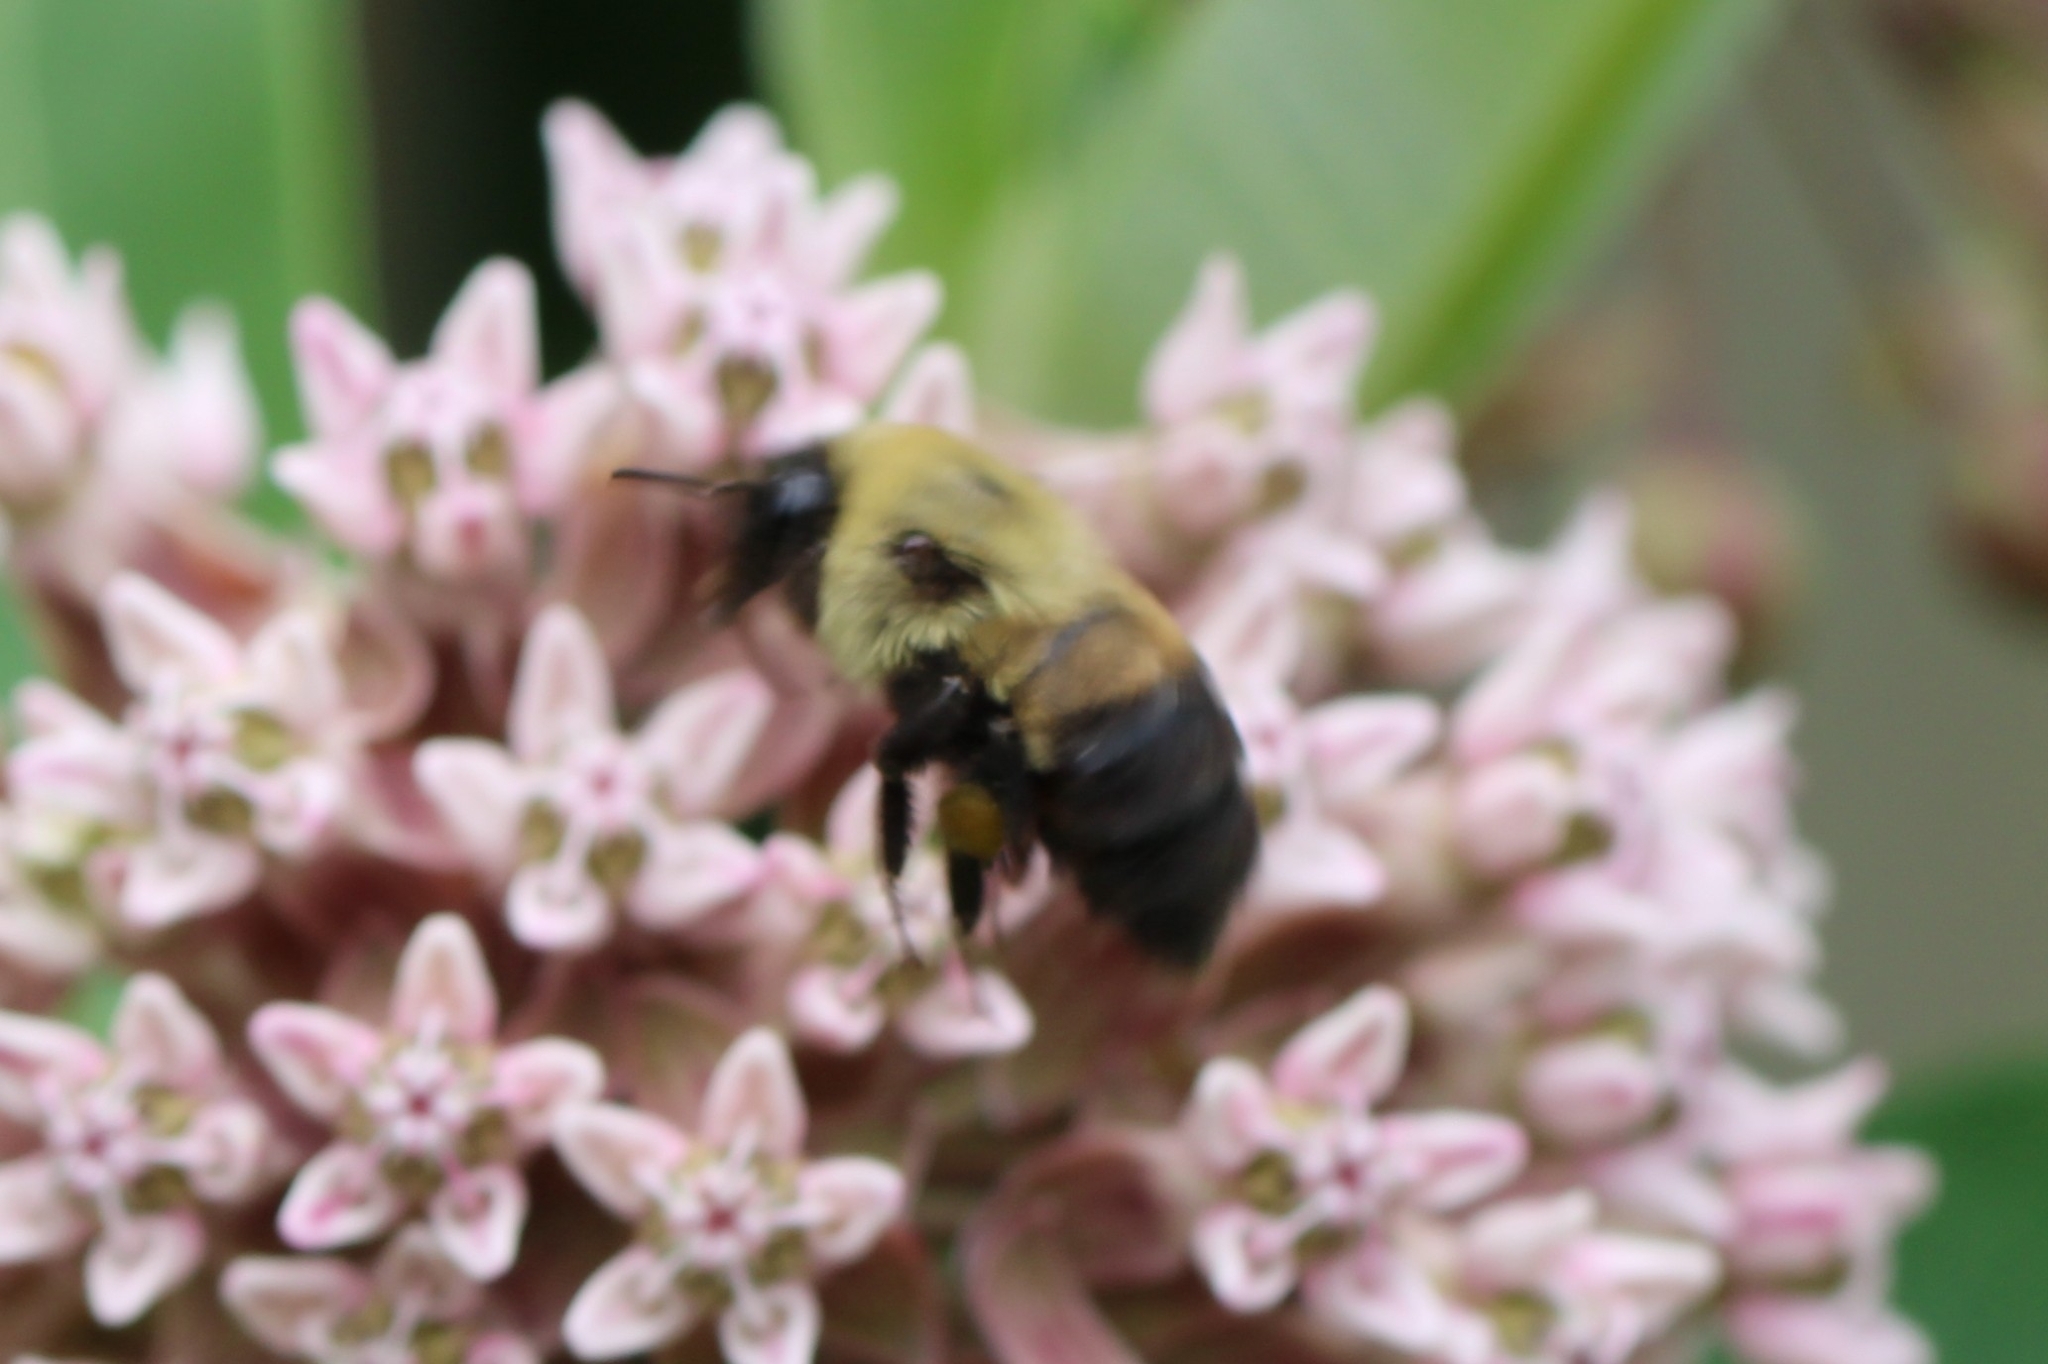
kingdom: Animalia
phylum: Arthropoda
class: Insecta
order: Hymenoptera
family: Apidae
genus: Bombus
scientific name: Bombus griseocollis
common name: Brown-belted bumble bee
